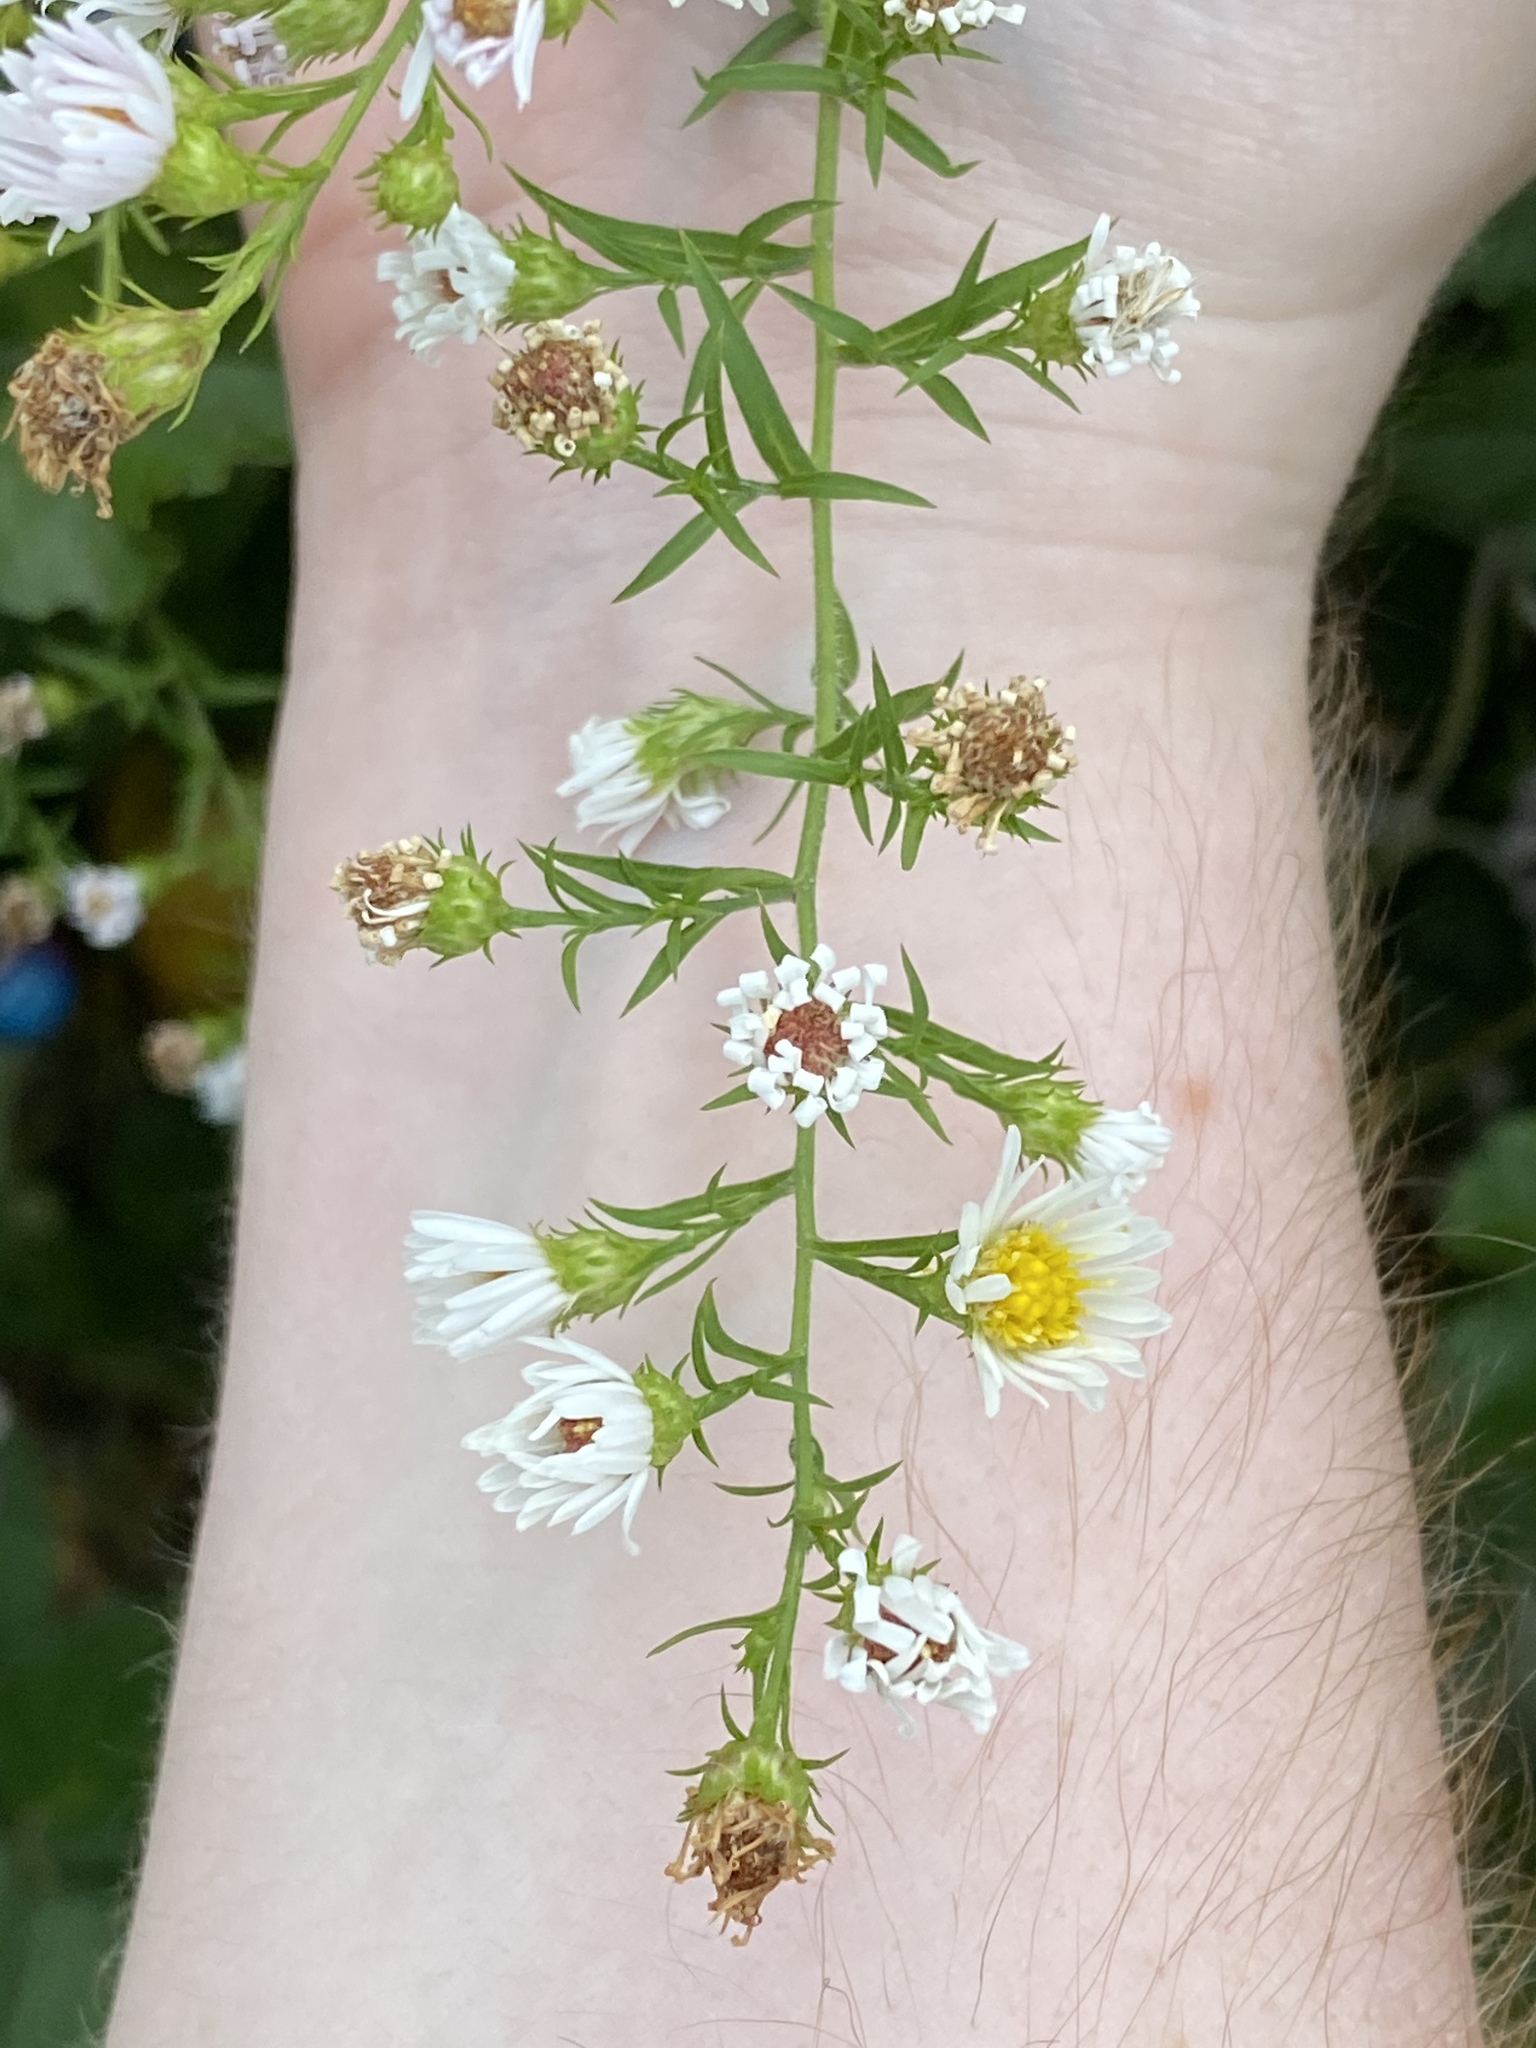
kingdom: Plantae
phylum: Tracheophyta
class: Magnoliopsida
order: Asterales
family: Asteraceae
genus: Symphyotrichum
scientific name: Symphyotrichum pilosum
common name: Awl aster
